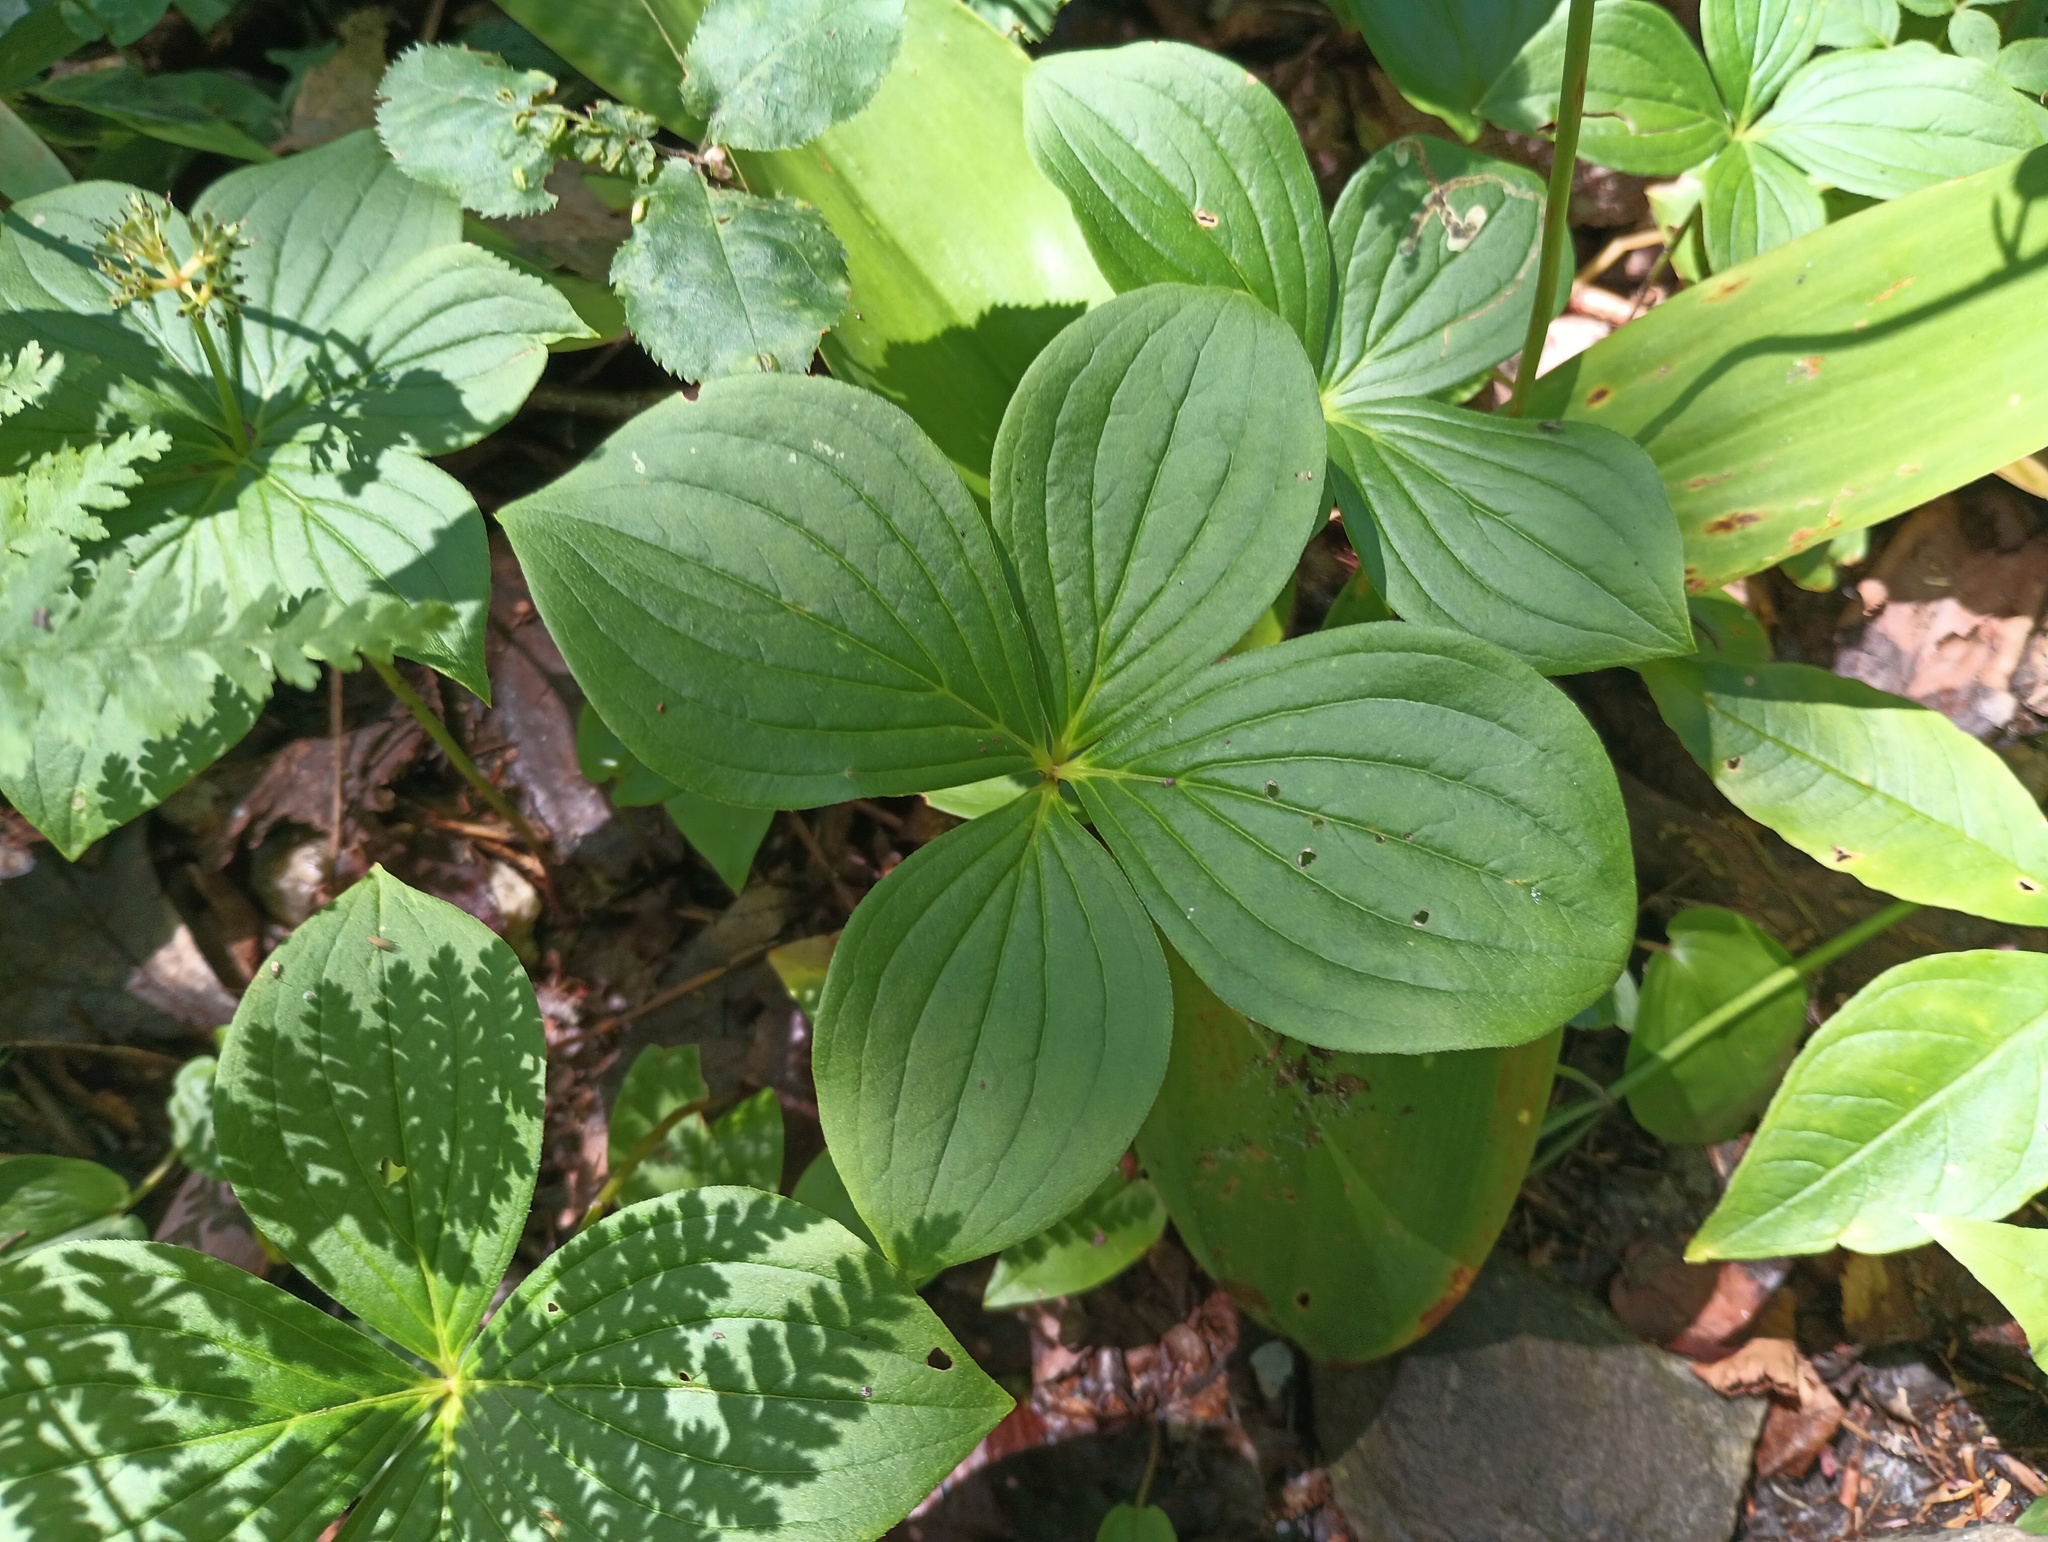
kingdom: Plantae
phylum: Tracheophyta
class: Magnoliopsida
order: Cornales
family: Cornaceae
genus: Cornus
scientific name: Cornus canadensis
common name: Creeping dogwood
